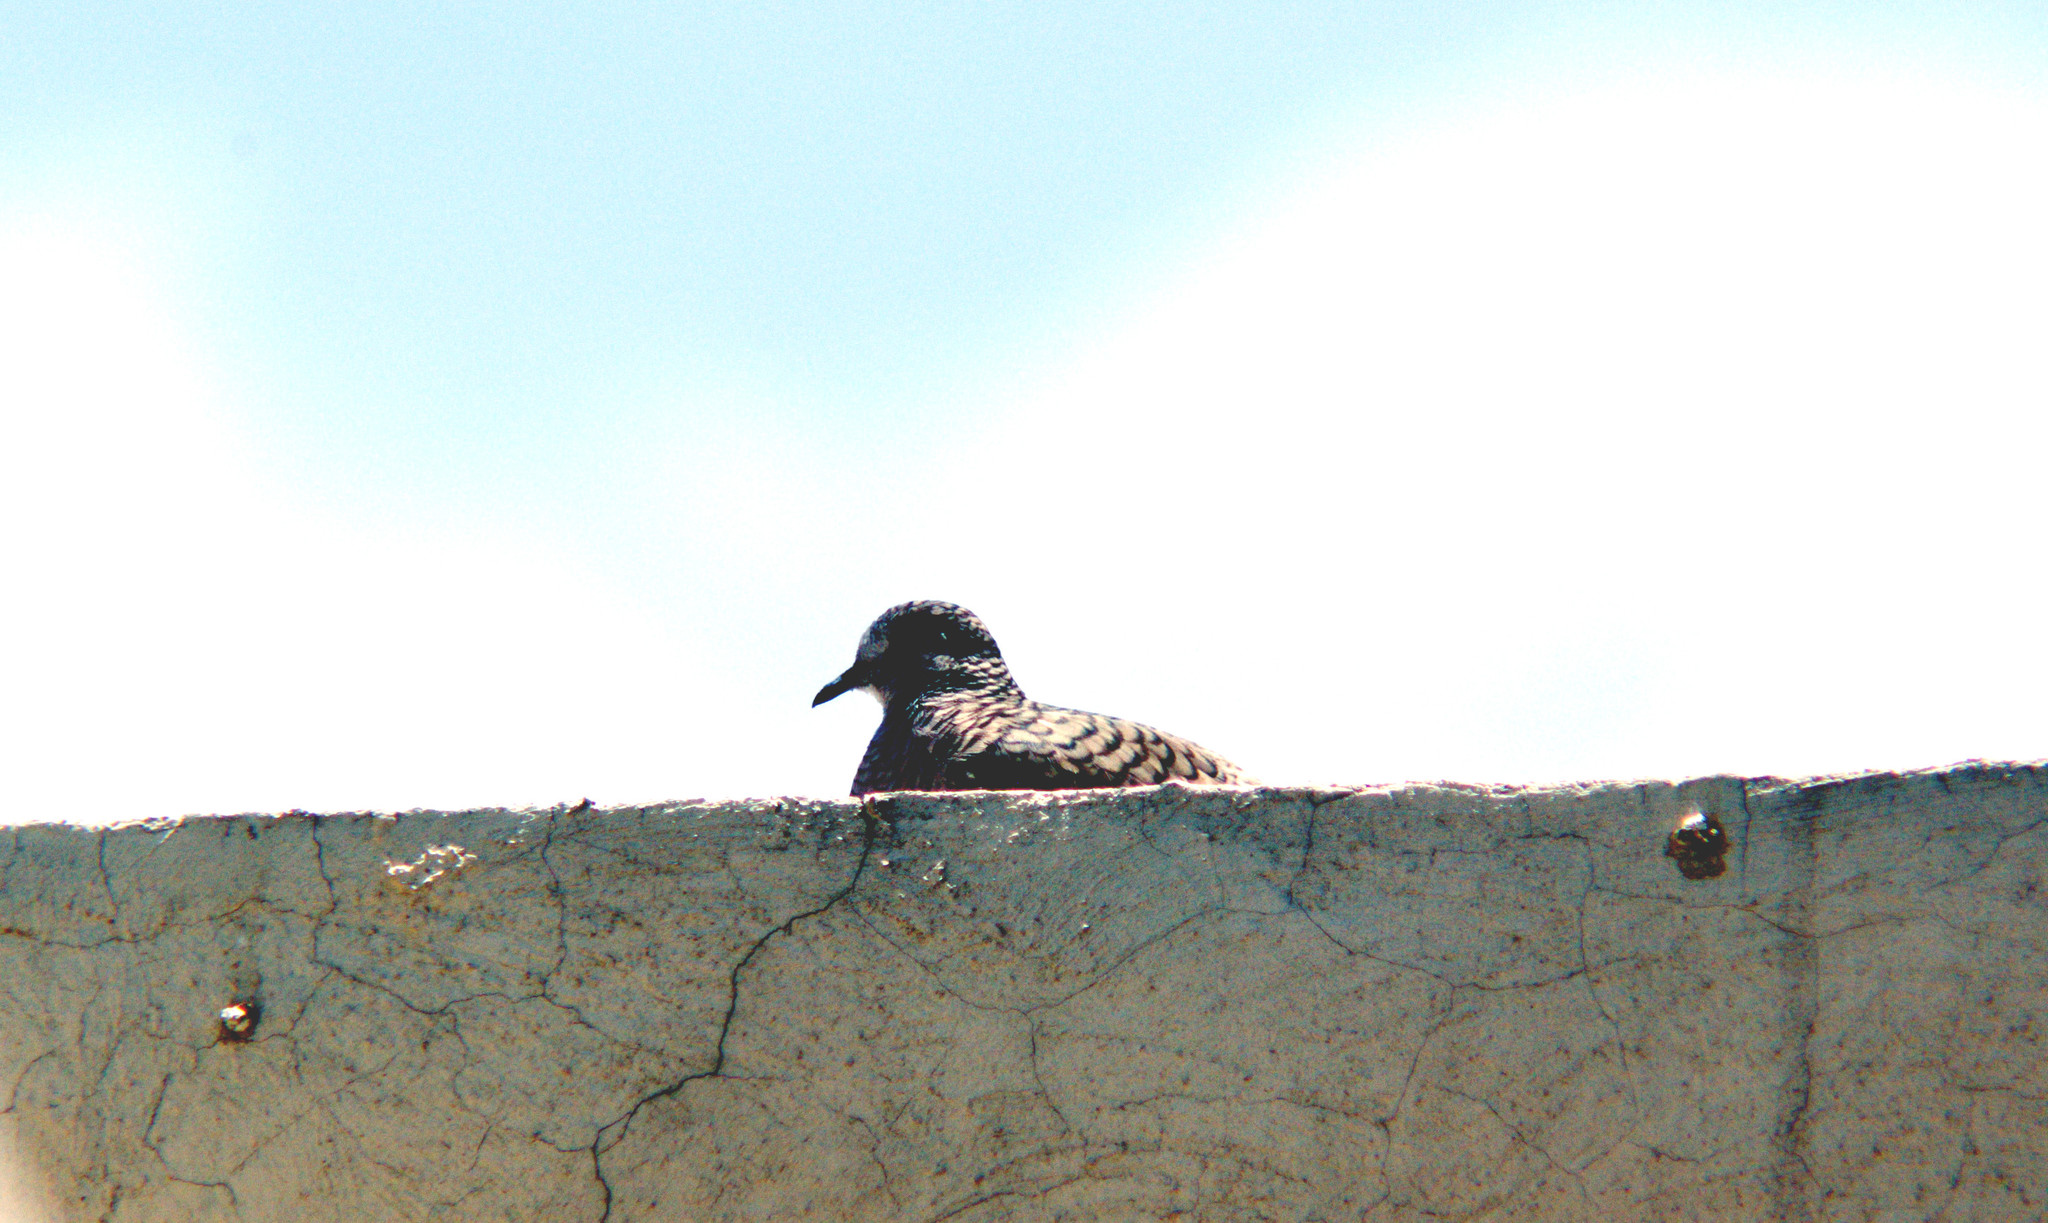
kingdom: Animalia
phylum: Chordata
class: Aves
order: Columbiformes
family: Columbidae
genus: Columbina
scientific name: Columbina inca
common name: Inca dove
